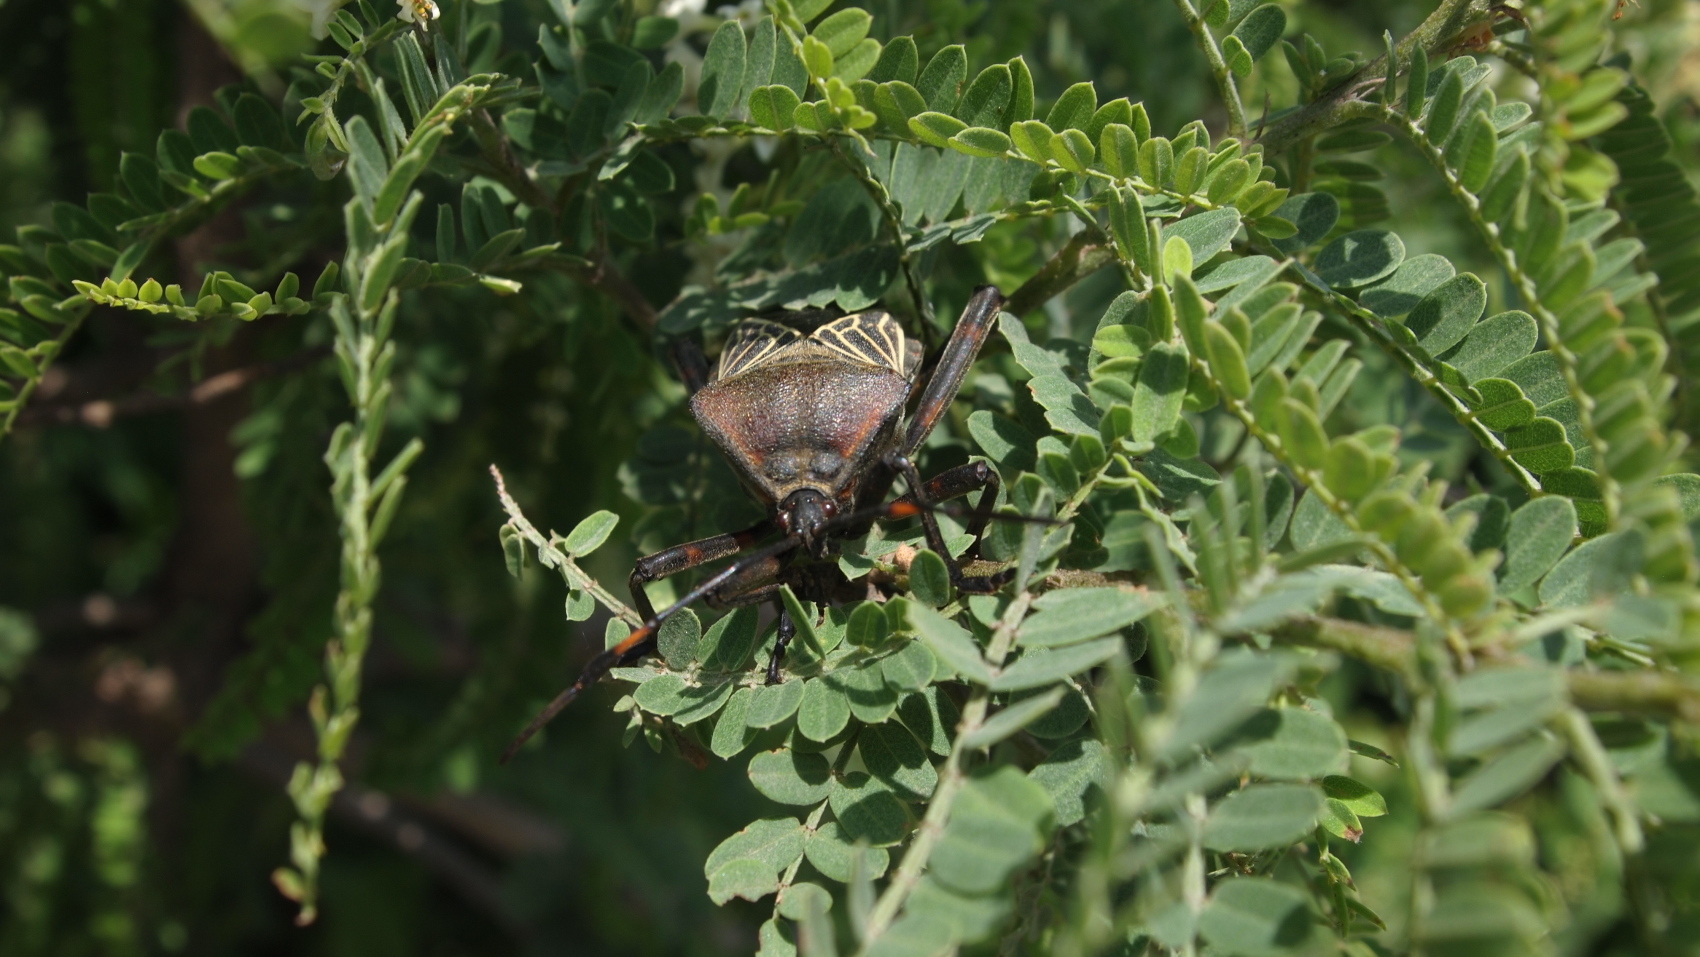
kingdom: Animalia
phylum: Arthropoda
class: Insecta
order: Hemiptera
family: Coreidae
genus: Thasus
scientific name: Thasus
